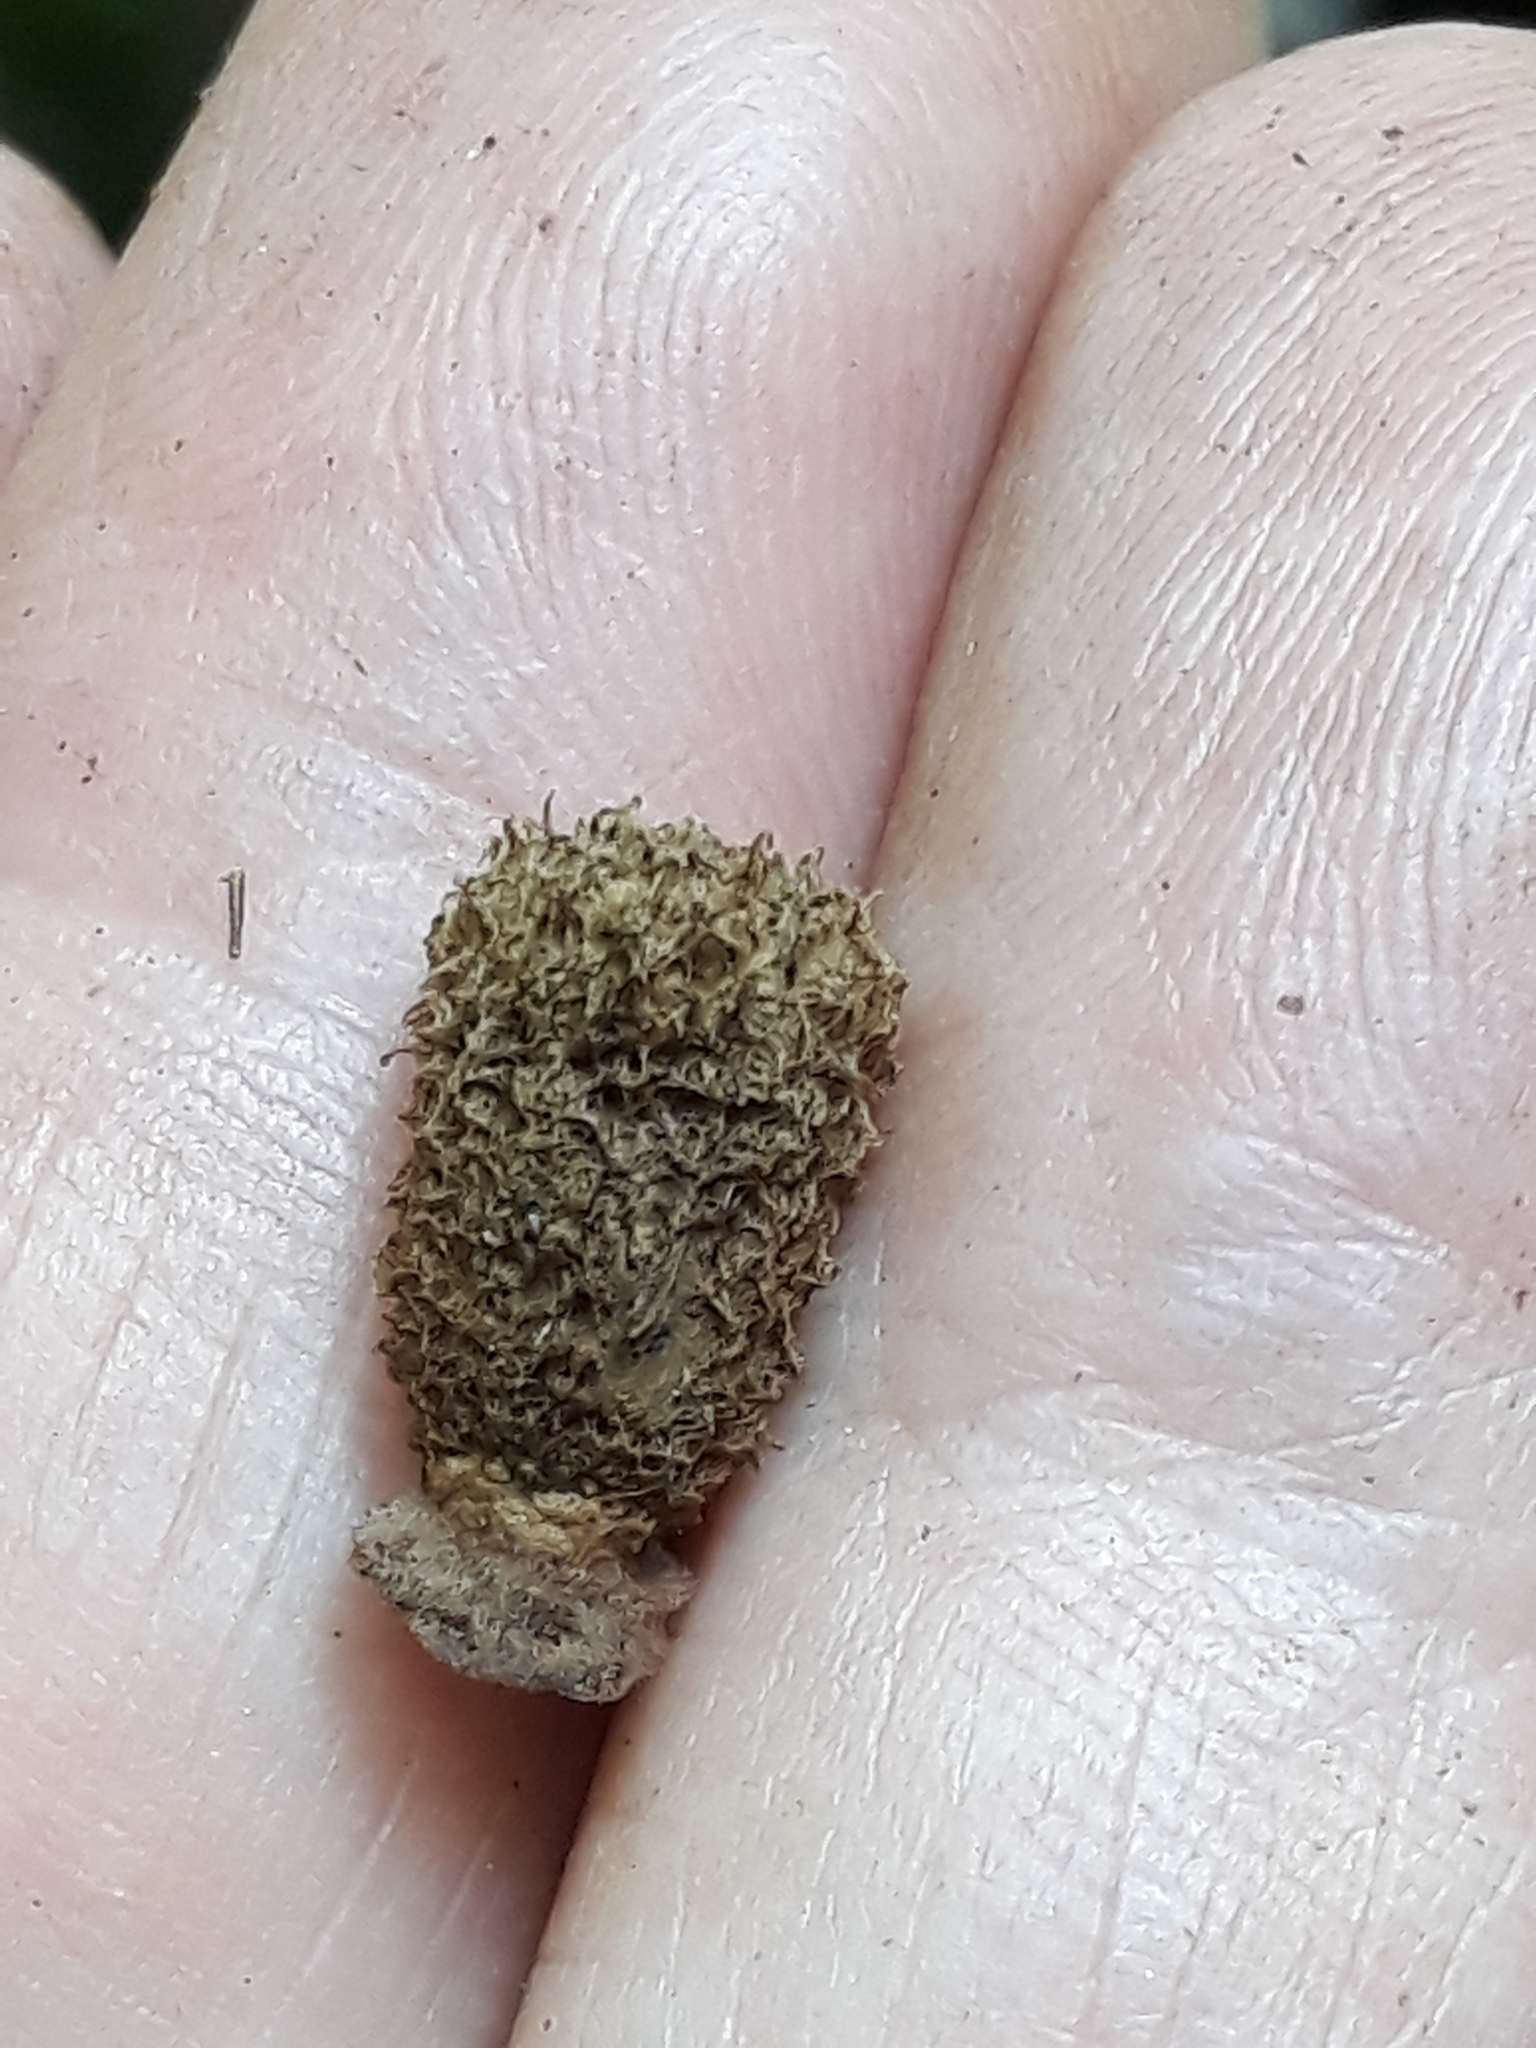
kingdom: Fungi
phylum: Basidiomycota
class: Agaricomycetes
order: Agaricales
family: Agaricaceae
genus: Cyathus
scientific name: Cyathus striatus
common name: Fluted bird's nest
